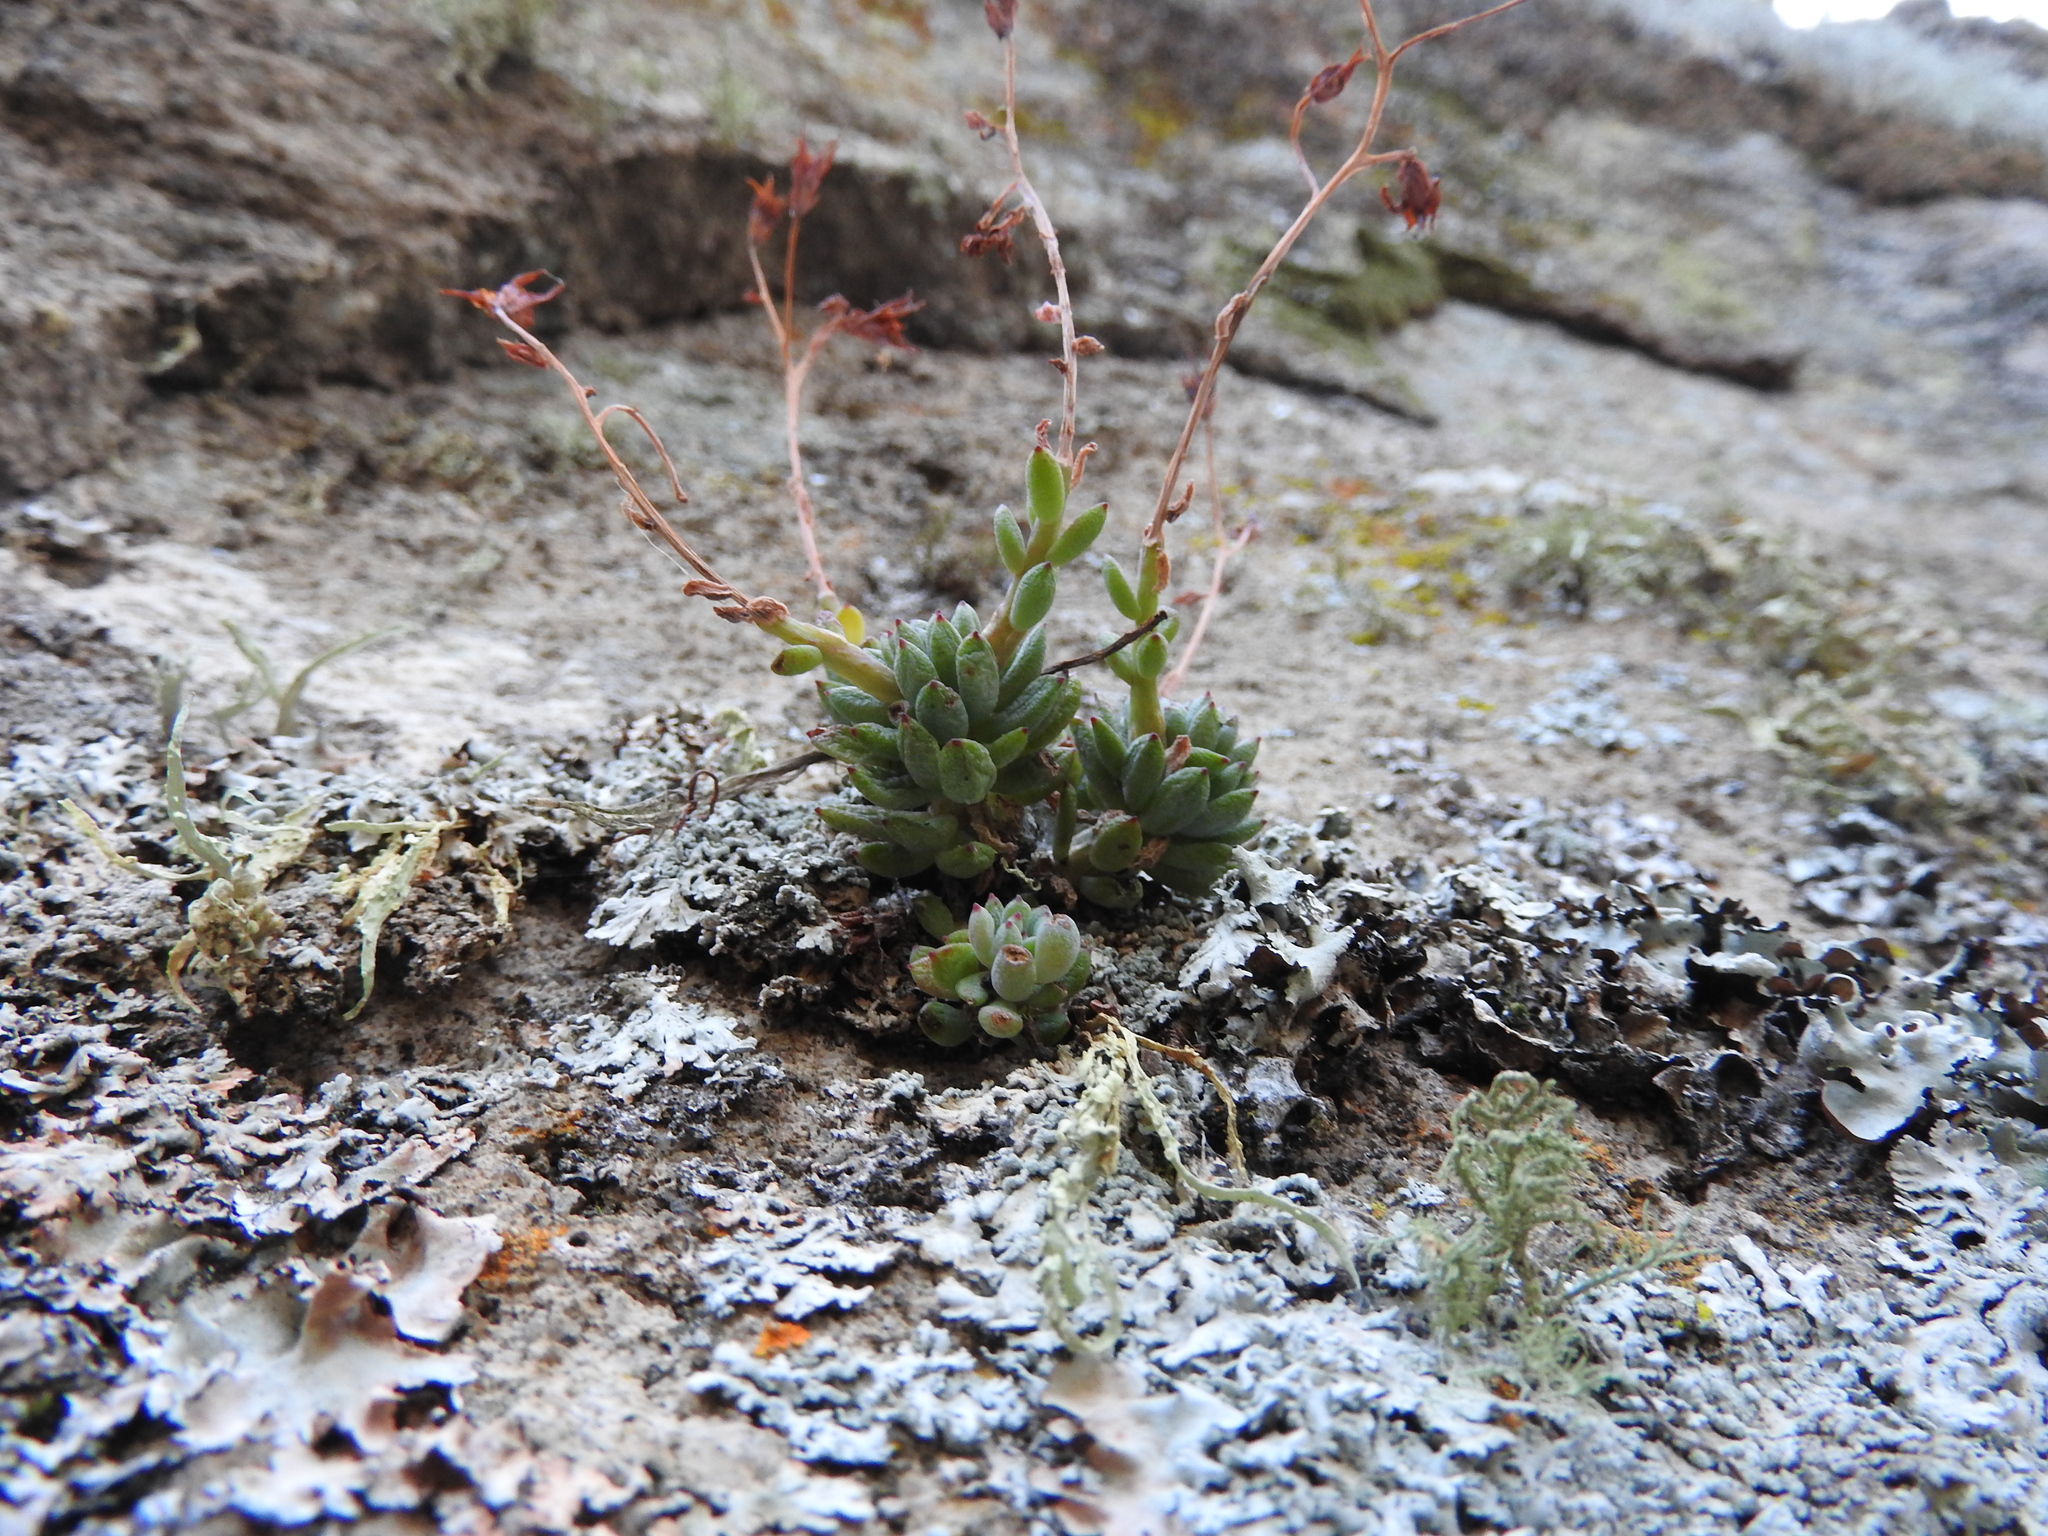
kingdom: Plantae
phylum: Tracheophyta
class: Magnoliopsida
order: Saxifragales
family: Crassulaceae
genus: Graptopetalum
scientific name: Graptopetalum pachyphyllum
